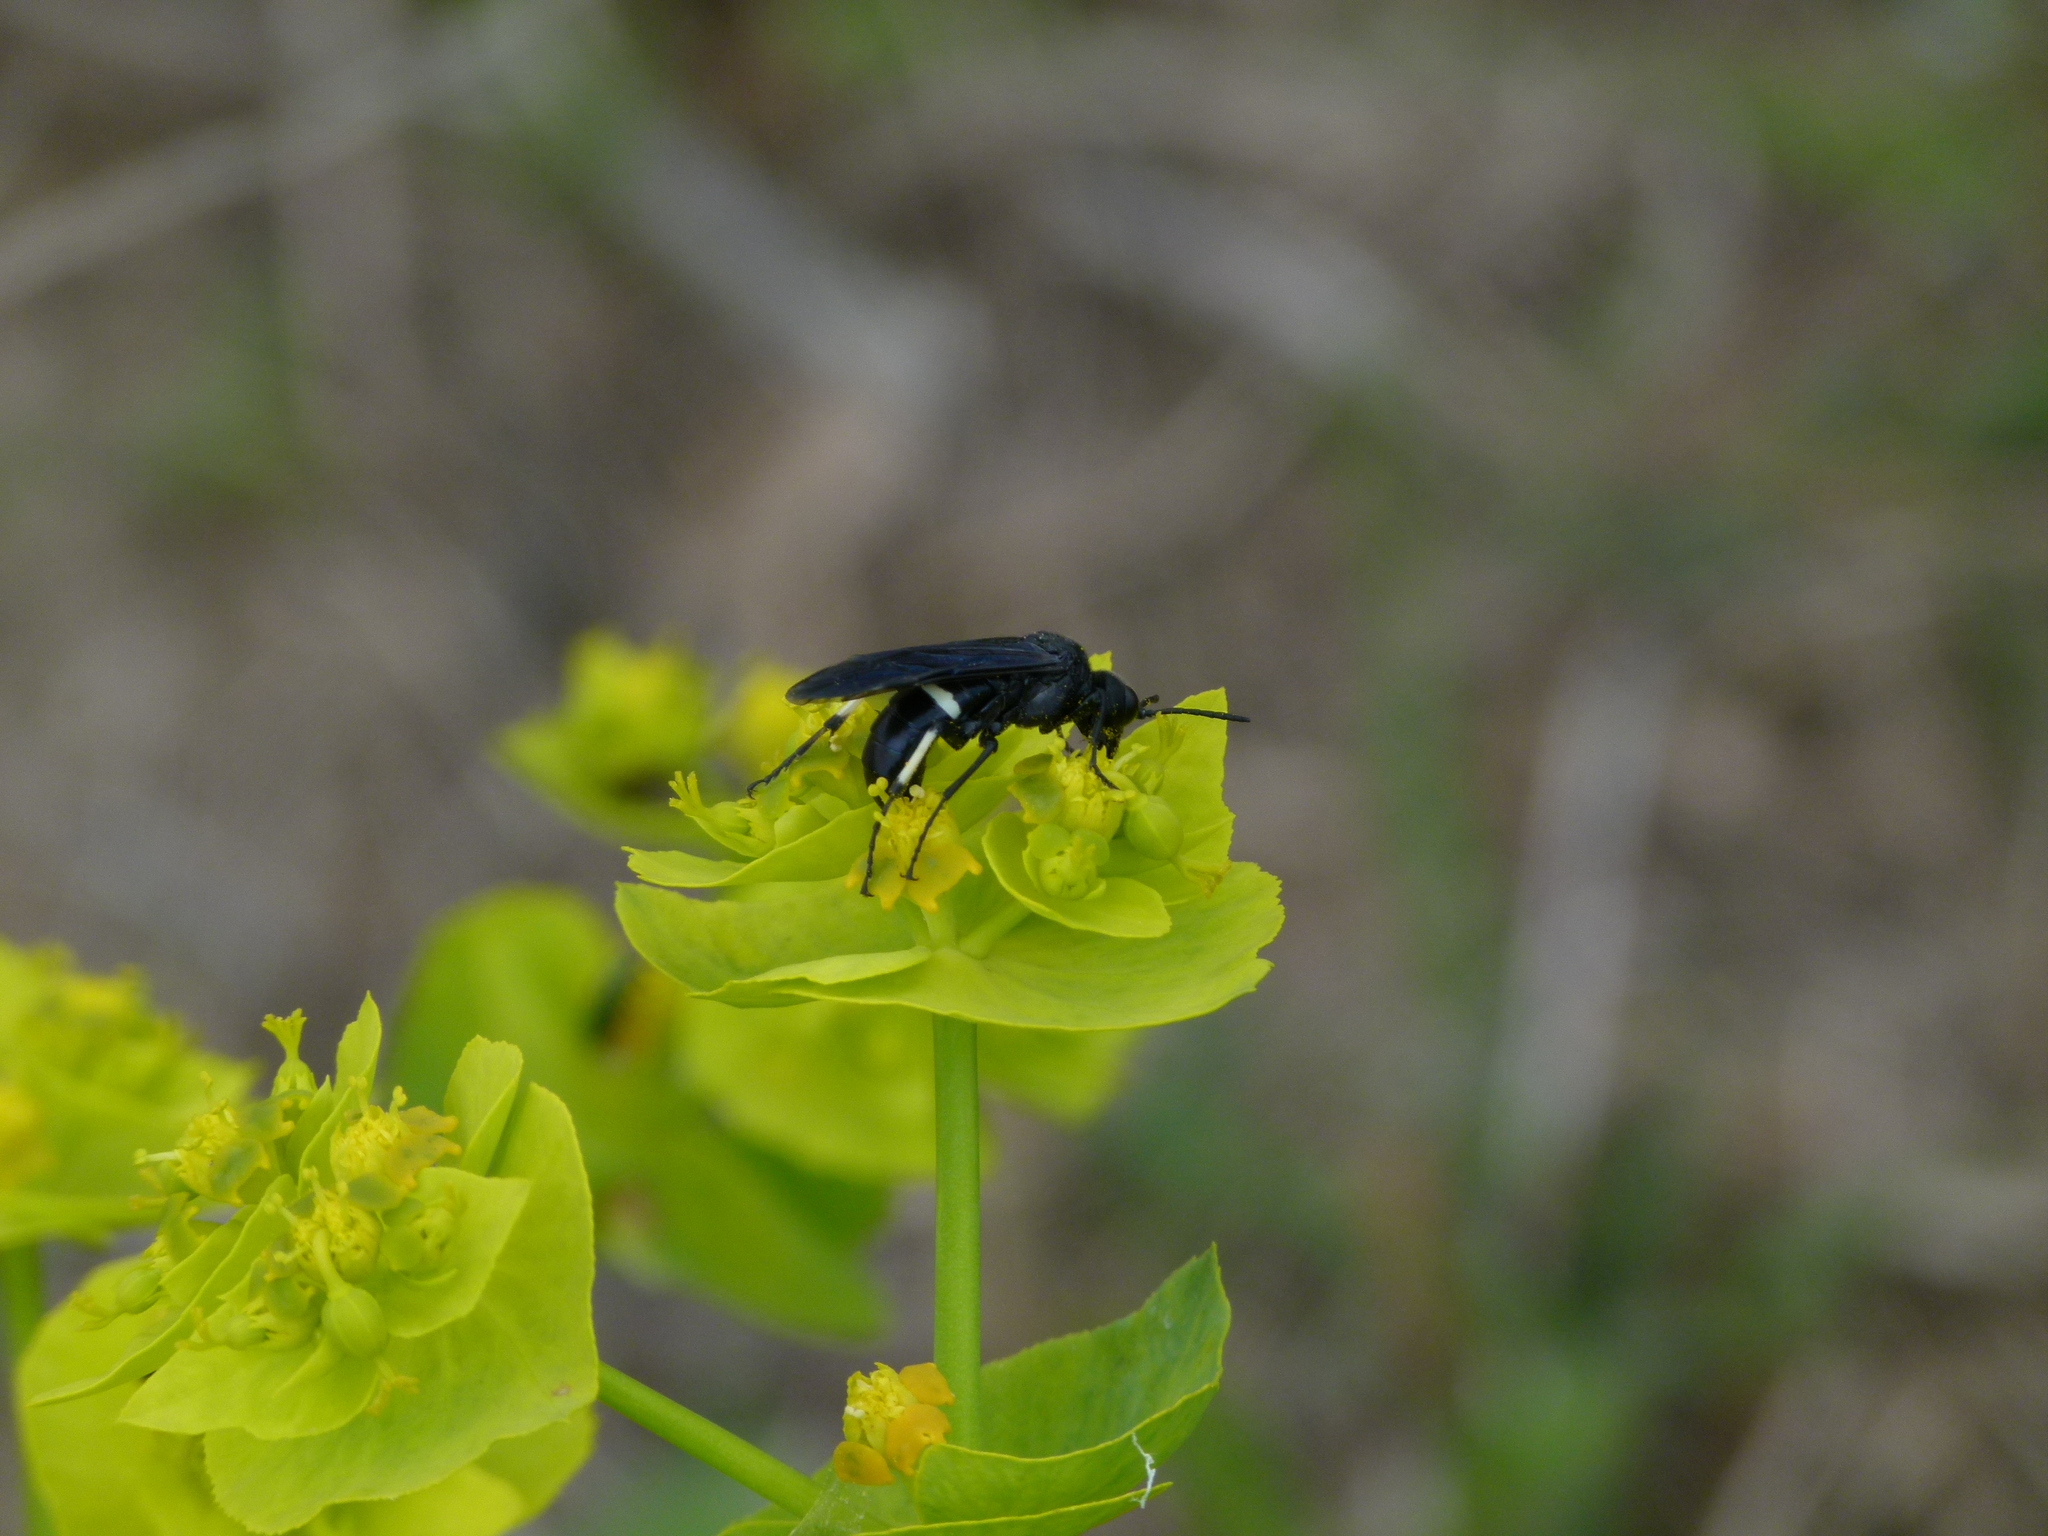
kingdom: Animalia
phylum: Arthropoda
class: Insecta
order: Hymenoptera
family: Tenthredinidae
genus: Tenthredo
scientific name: Tenthredo bifasciata
